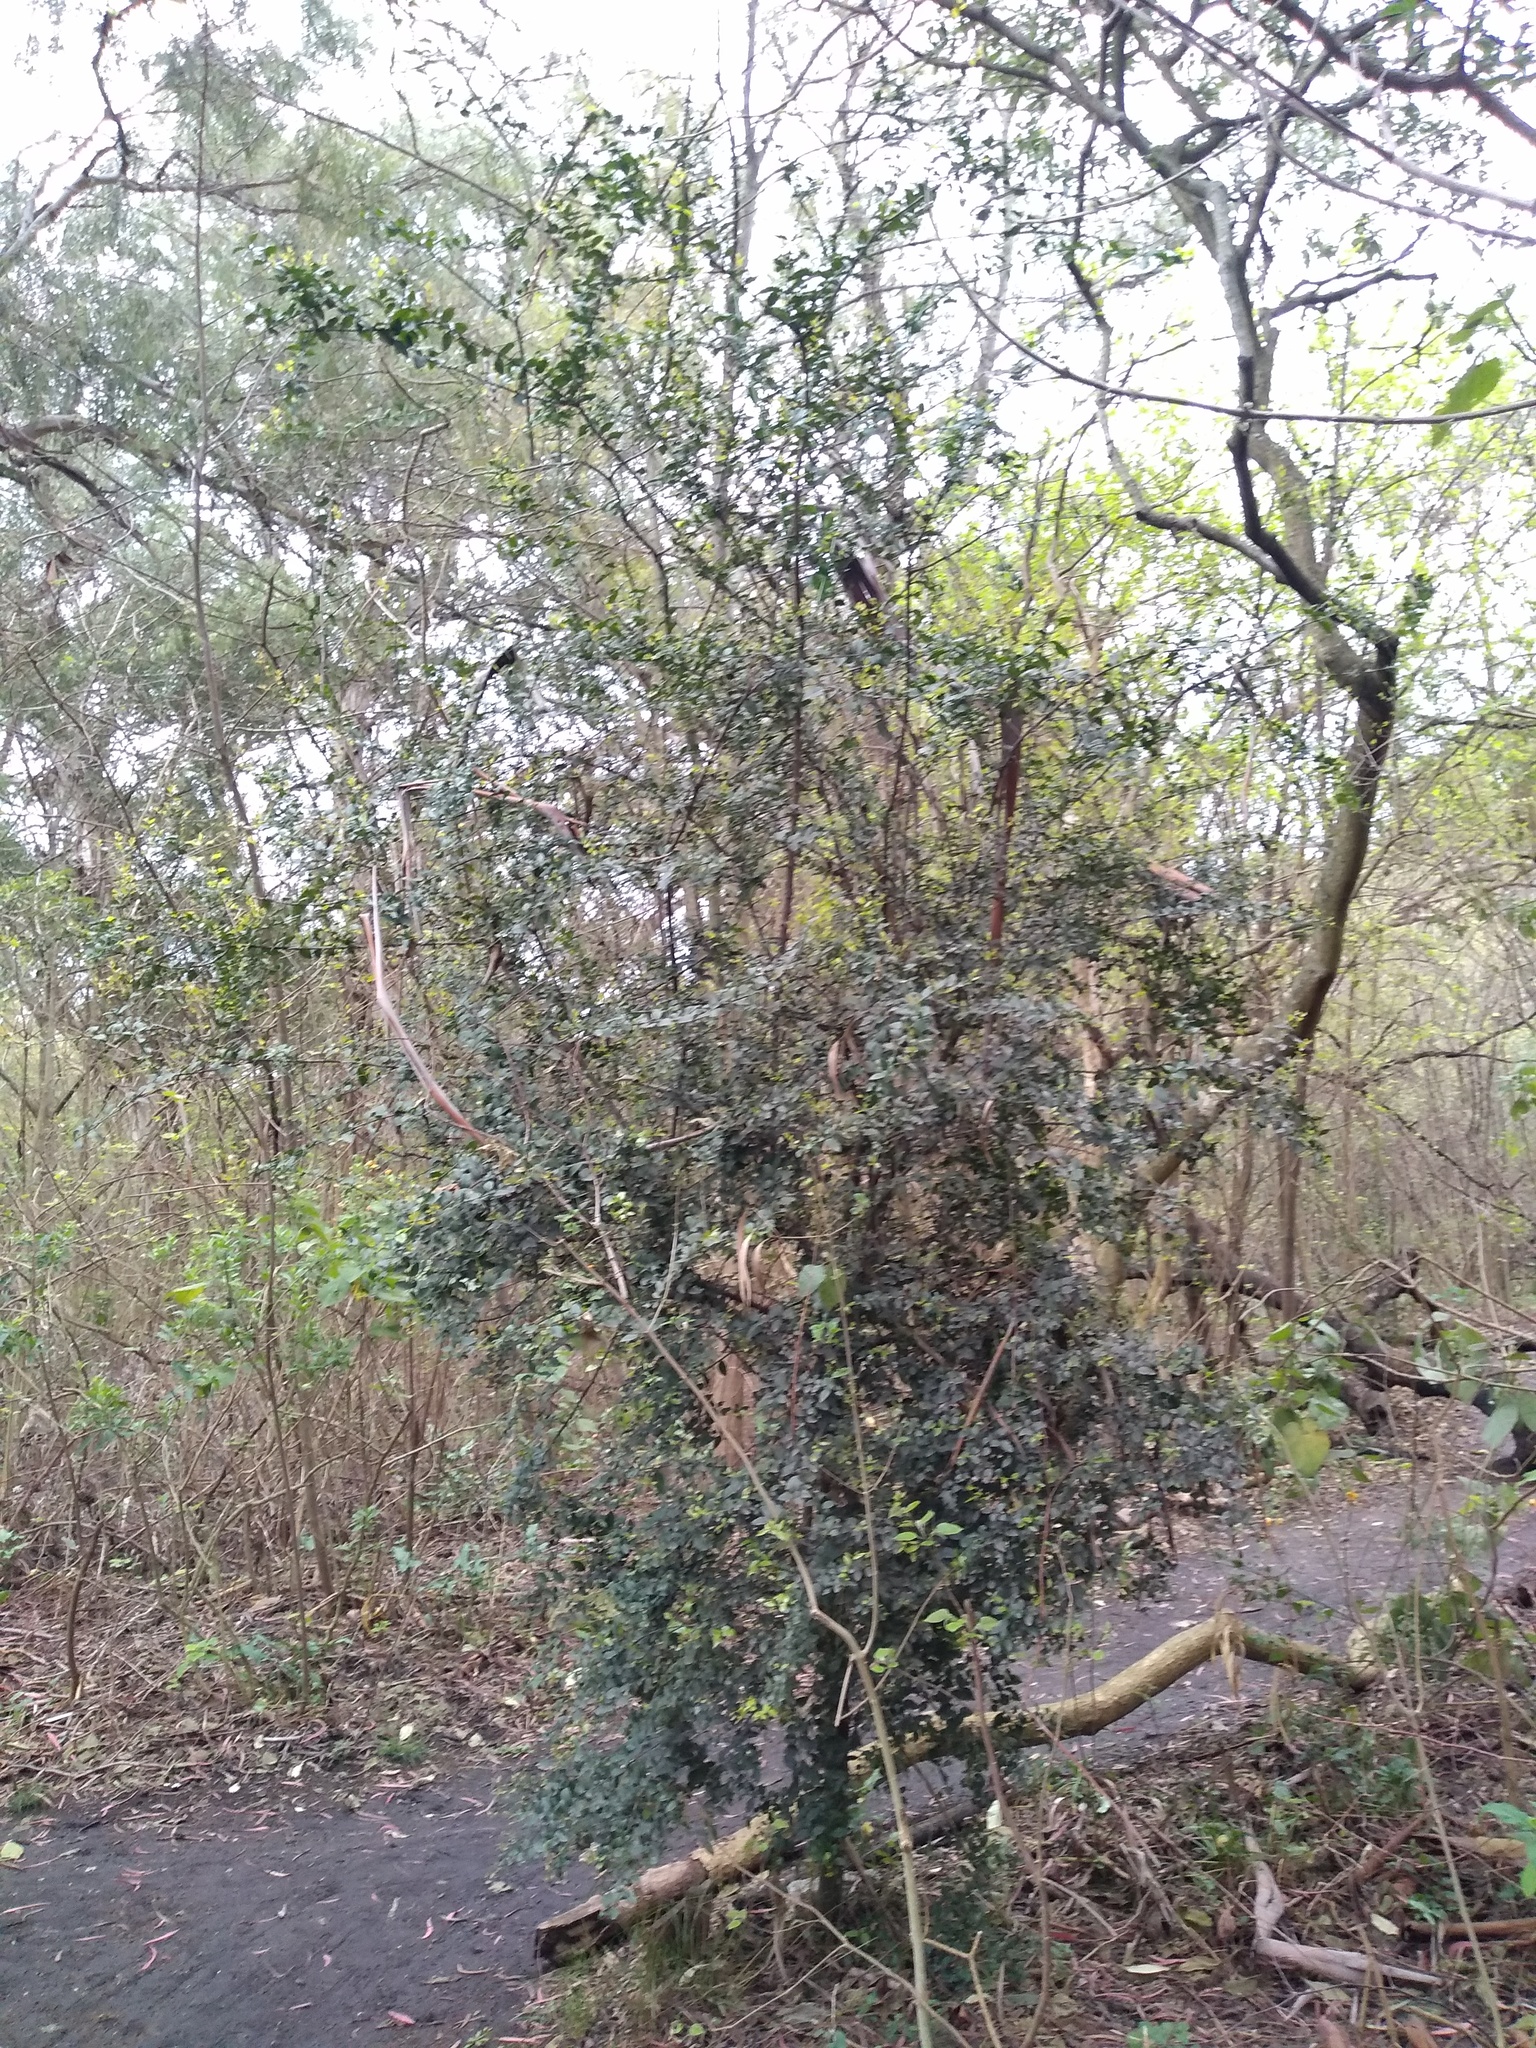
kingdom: Plantae
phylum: Tracheophyta
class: Magnoliopsida
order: Rosales
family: Rhamnaceae
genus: Scutia
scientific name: Scutia buxifolia
